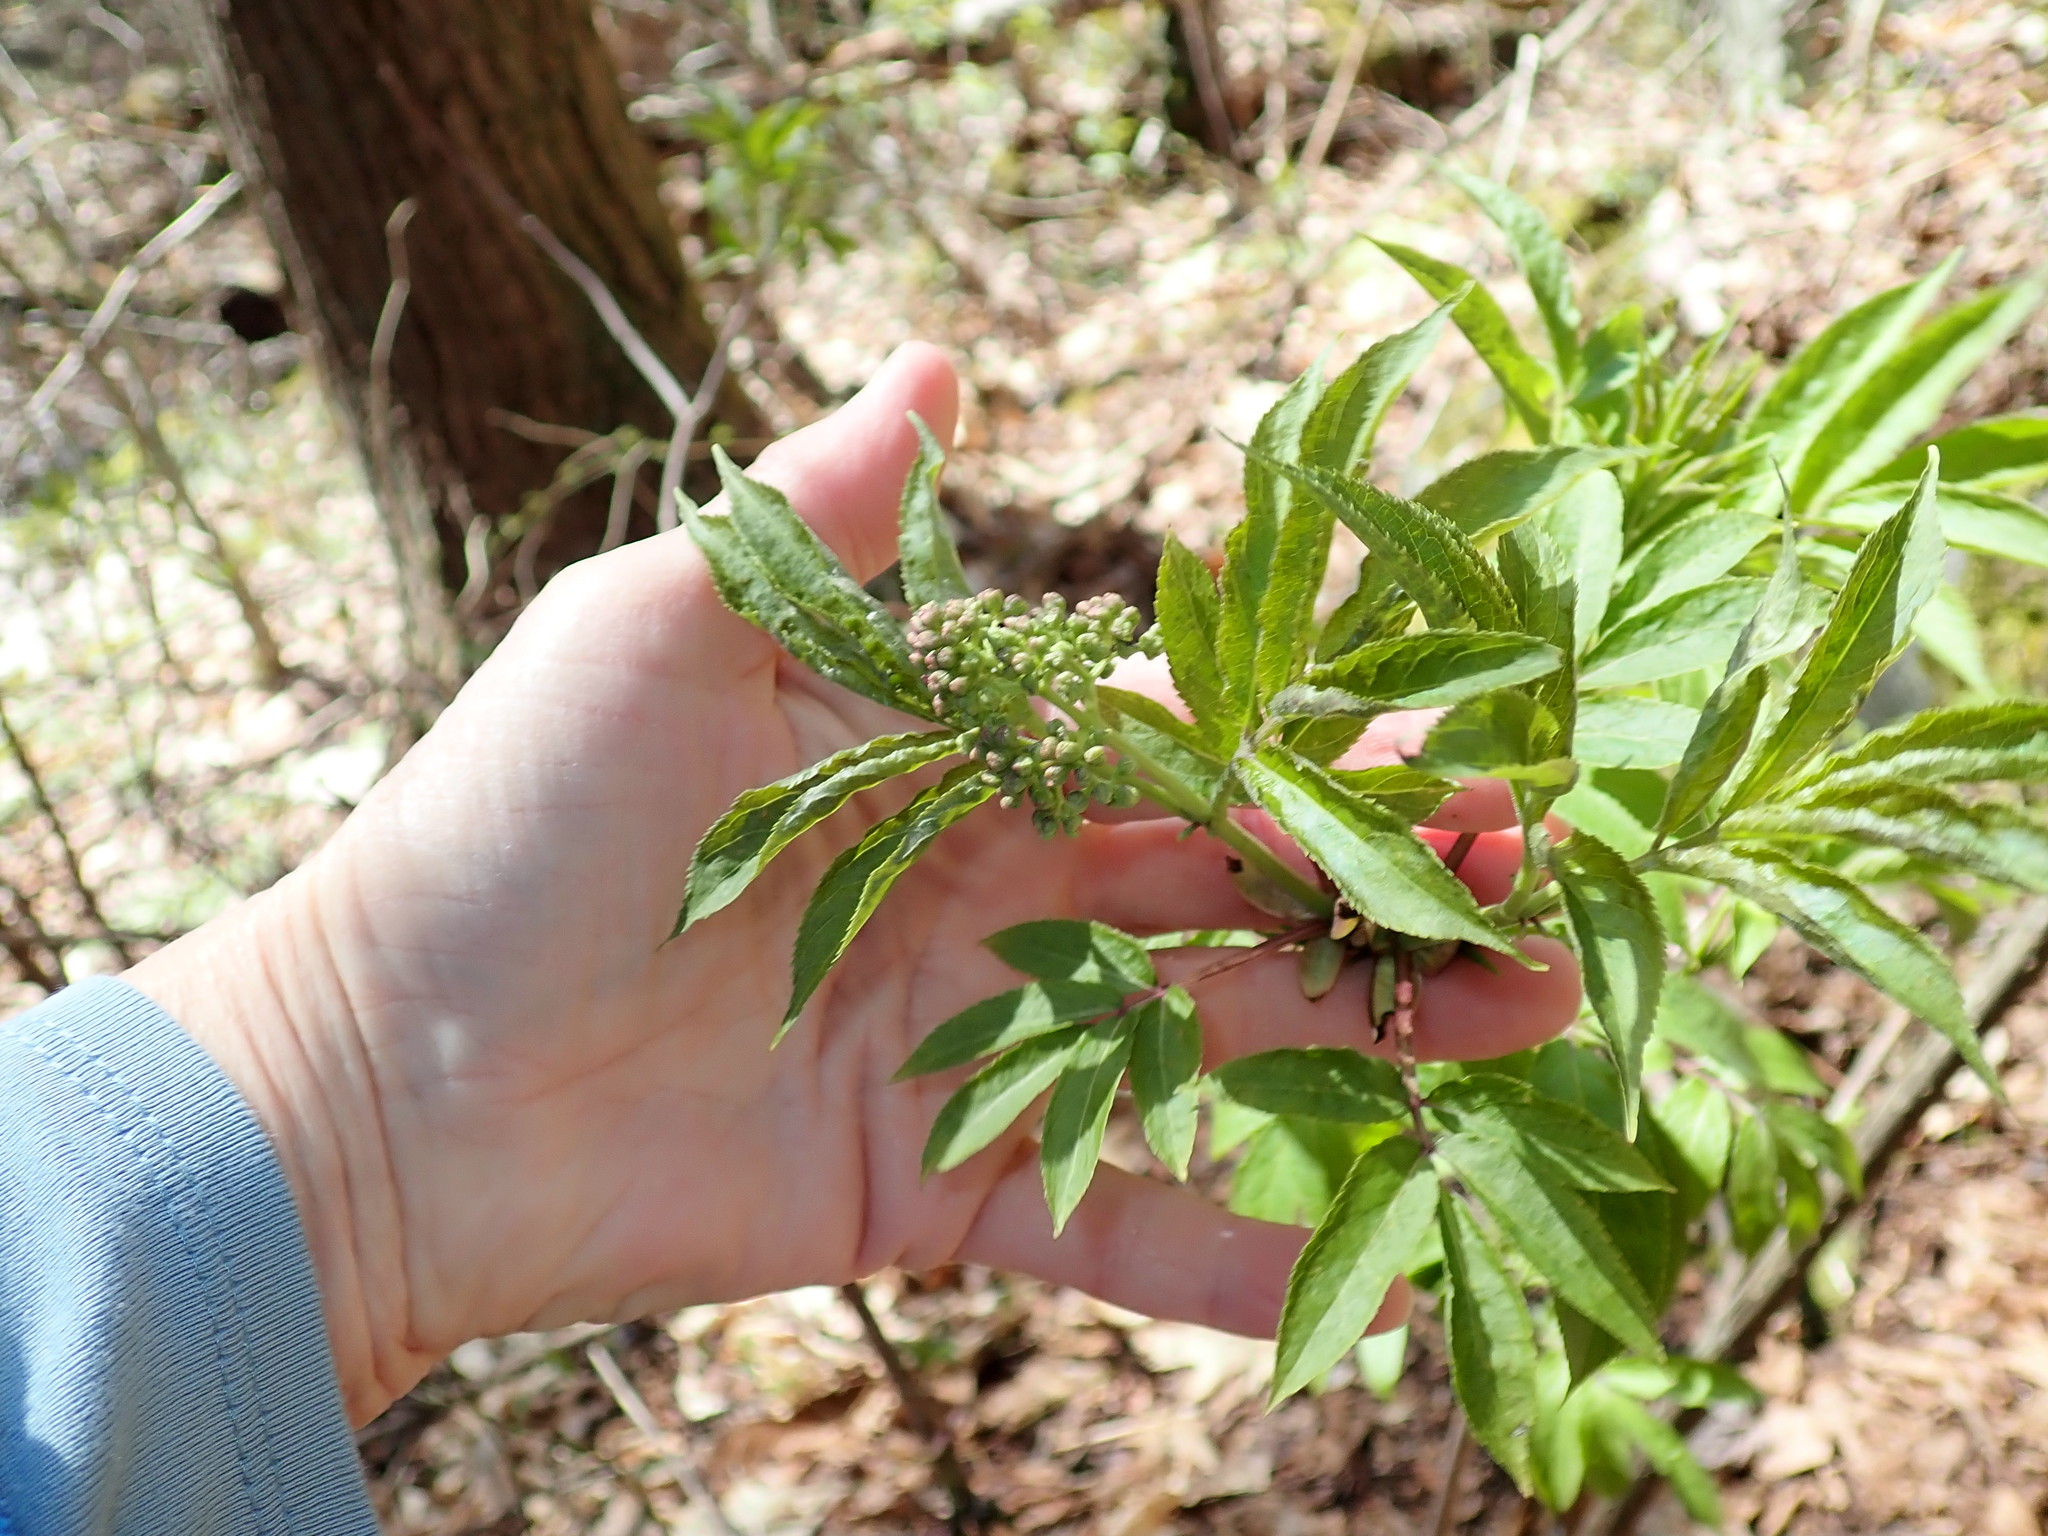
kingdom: Plantae
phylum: Tracheophyta
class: Magnoliopsida
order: Dipsacales
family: Viburnaceae
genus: Sambucus
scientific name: Sambucus racemosa
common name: Red-berried elder
